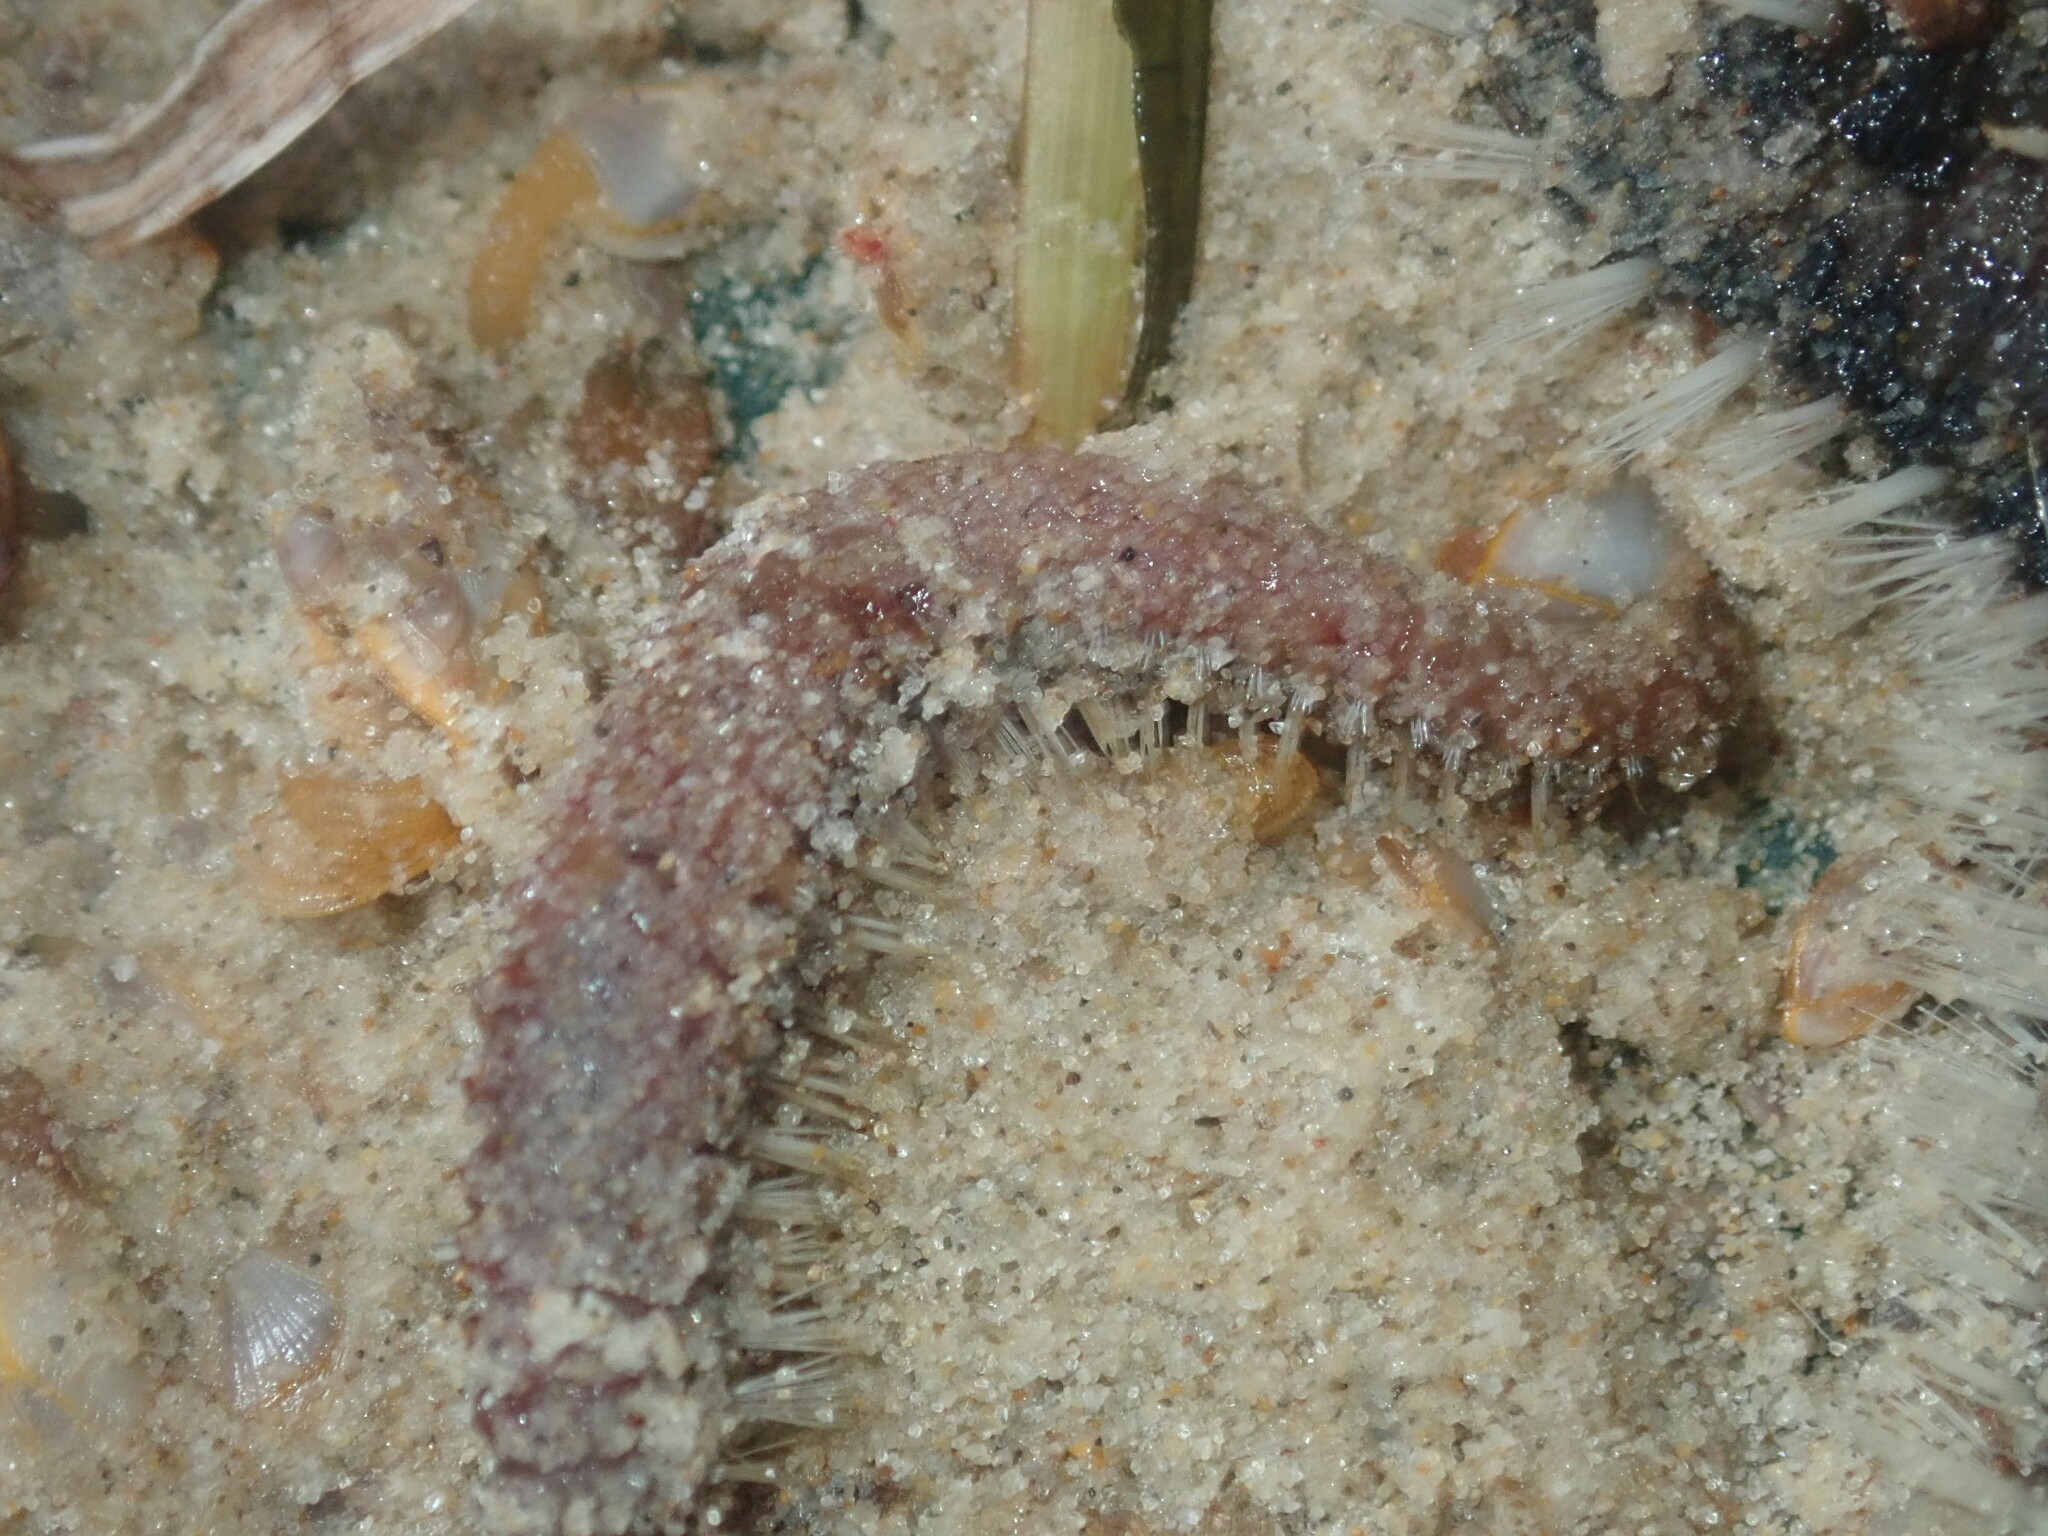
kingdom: Animalia
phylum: Annelida
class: Polychaeta
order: Amphinomida
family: Amphinomidae
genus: Amphinome
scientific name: Amphinome rostrata
